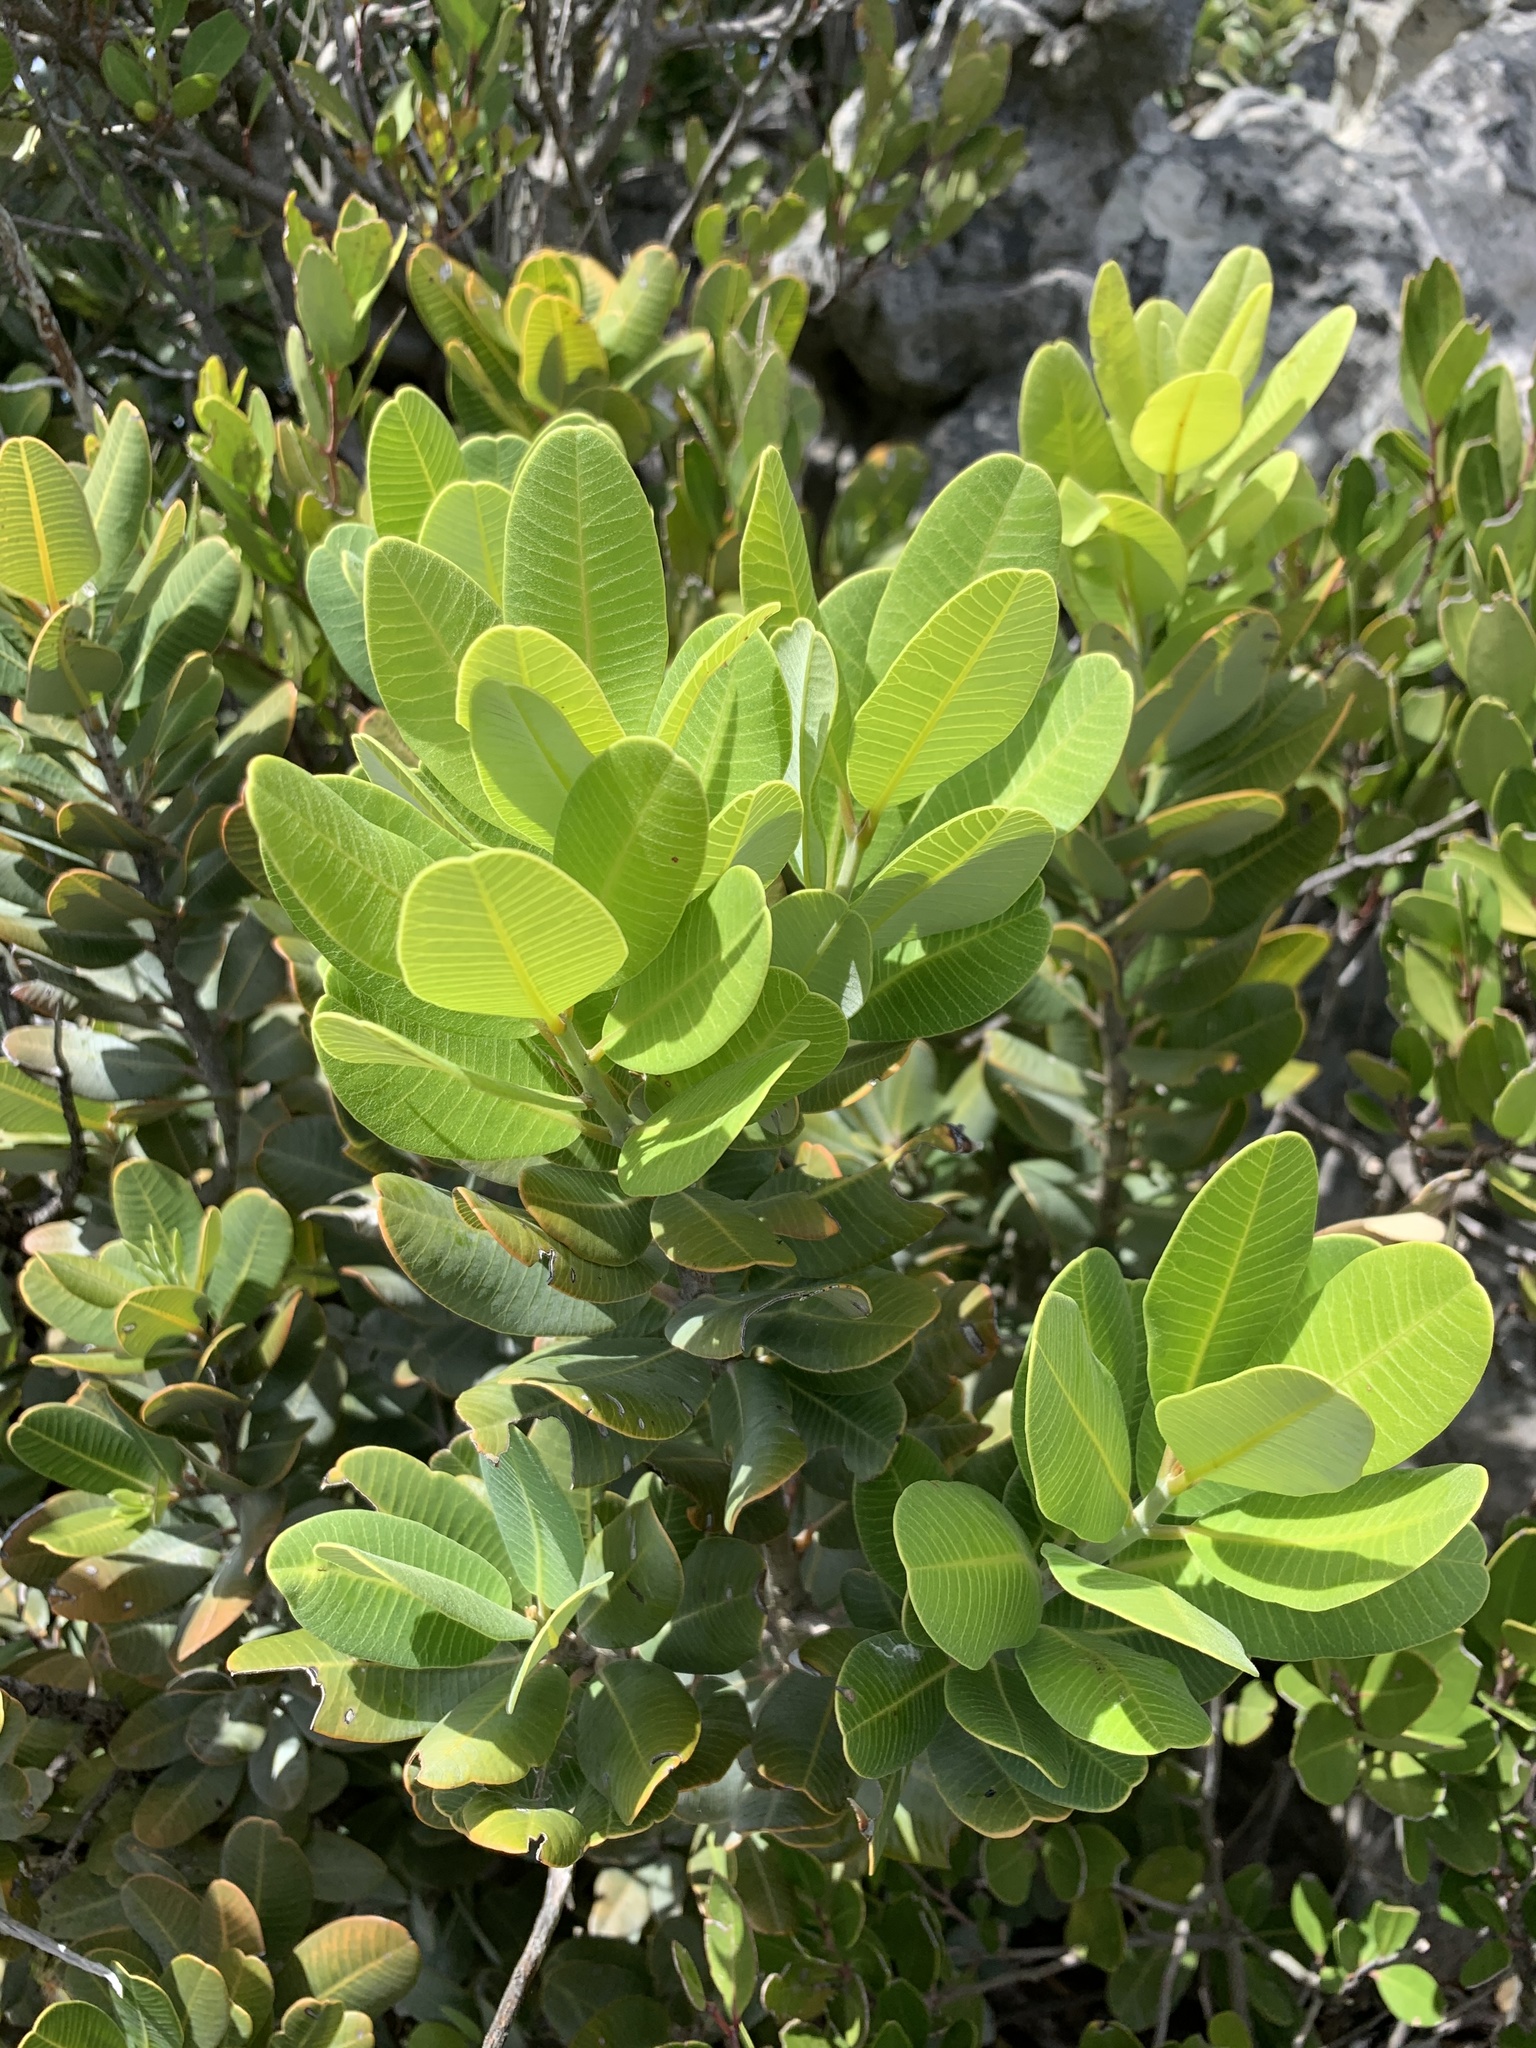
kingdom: Plantae
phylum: Tracheophyta
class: Magnoliopsida
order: Sapindales
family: Anacardiaceae
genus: Heeria
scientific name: Heeria argentea
